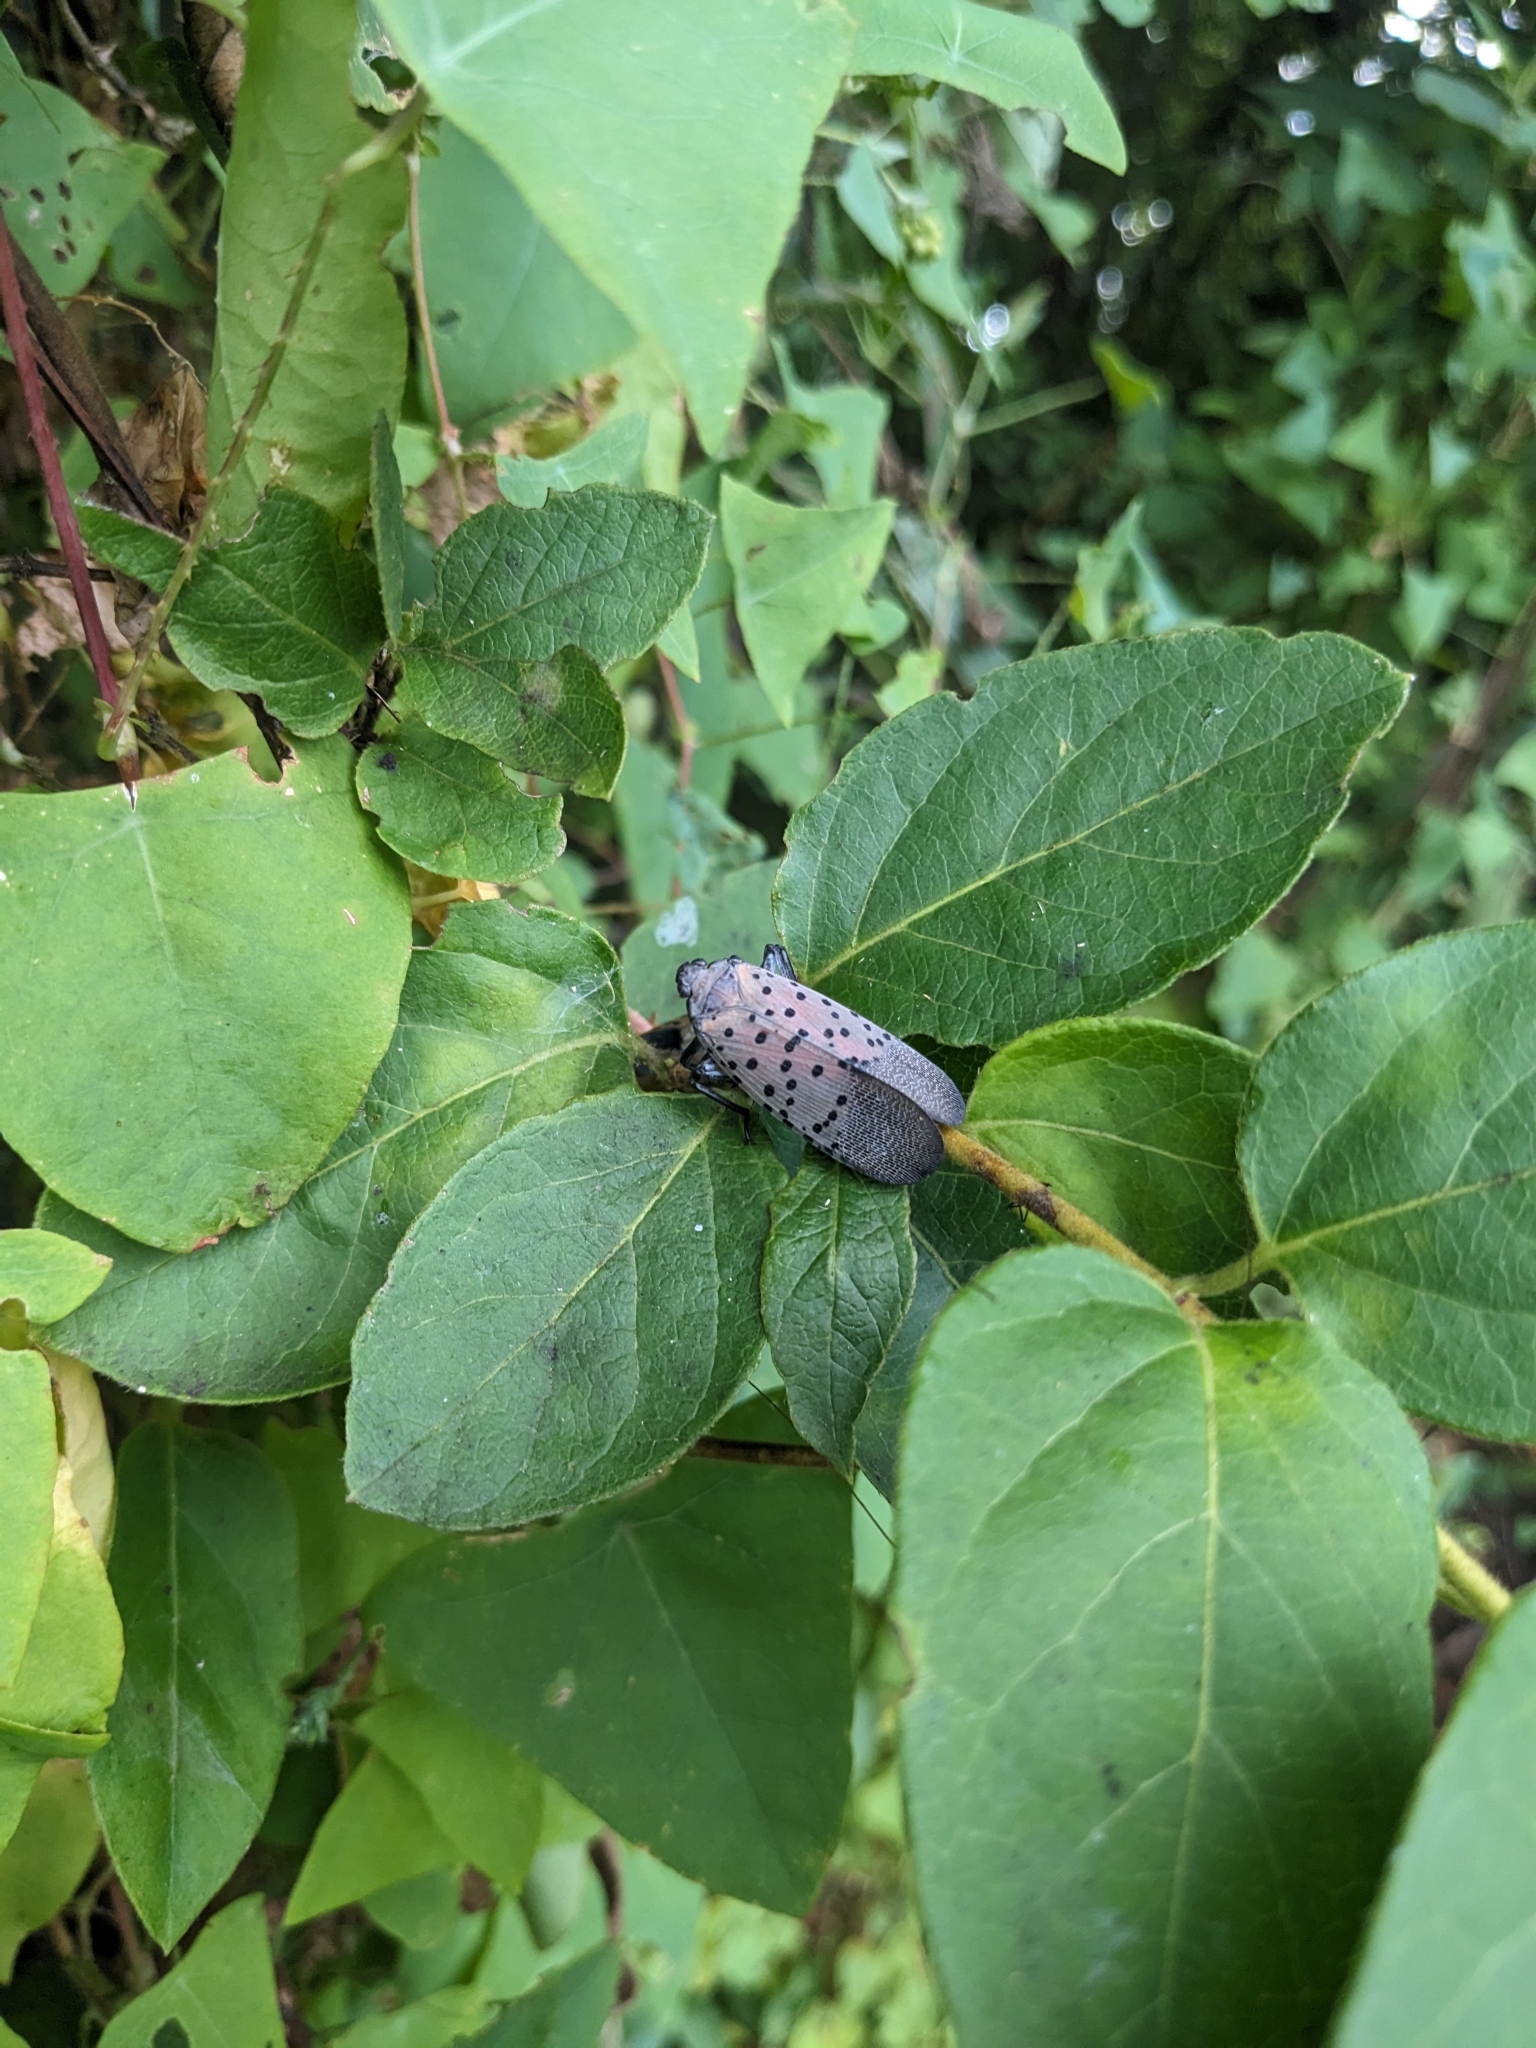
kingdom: Animalia
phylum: Arthropoda
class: Insecta
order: Hemiptera
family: Fulgoridae
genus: Lycorma
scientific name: Lycorma delicatula
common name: Spotted lanternfly
